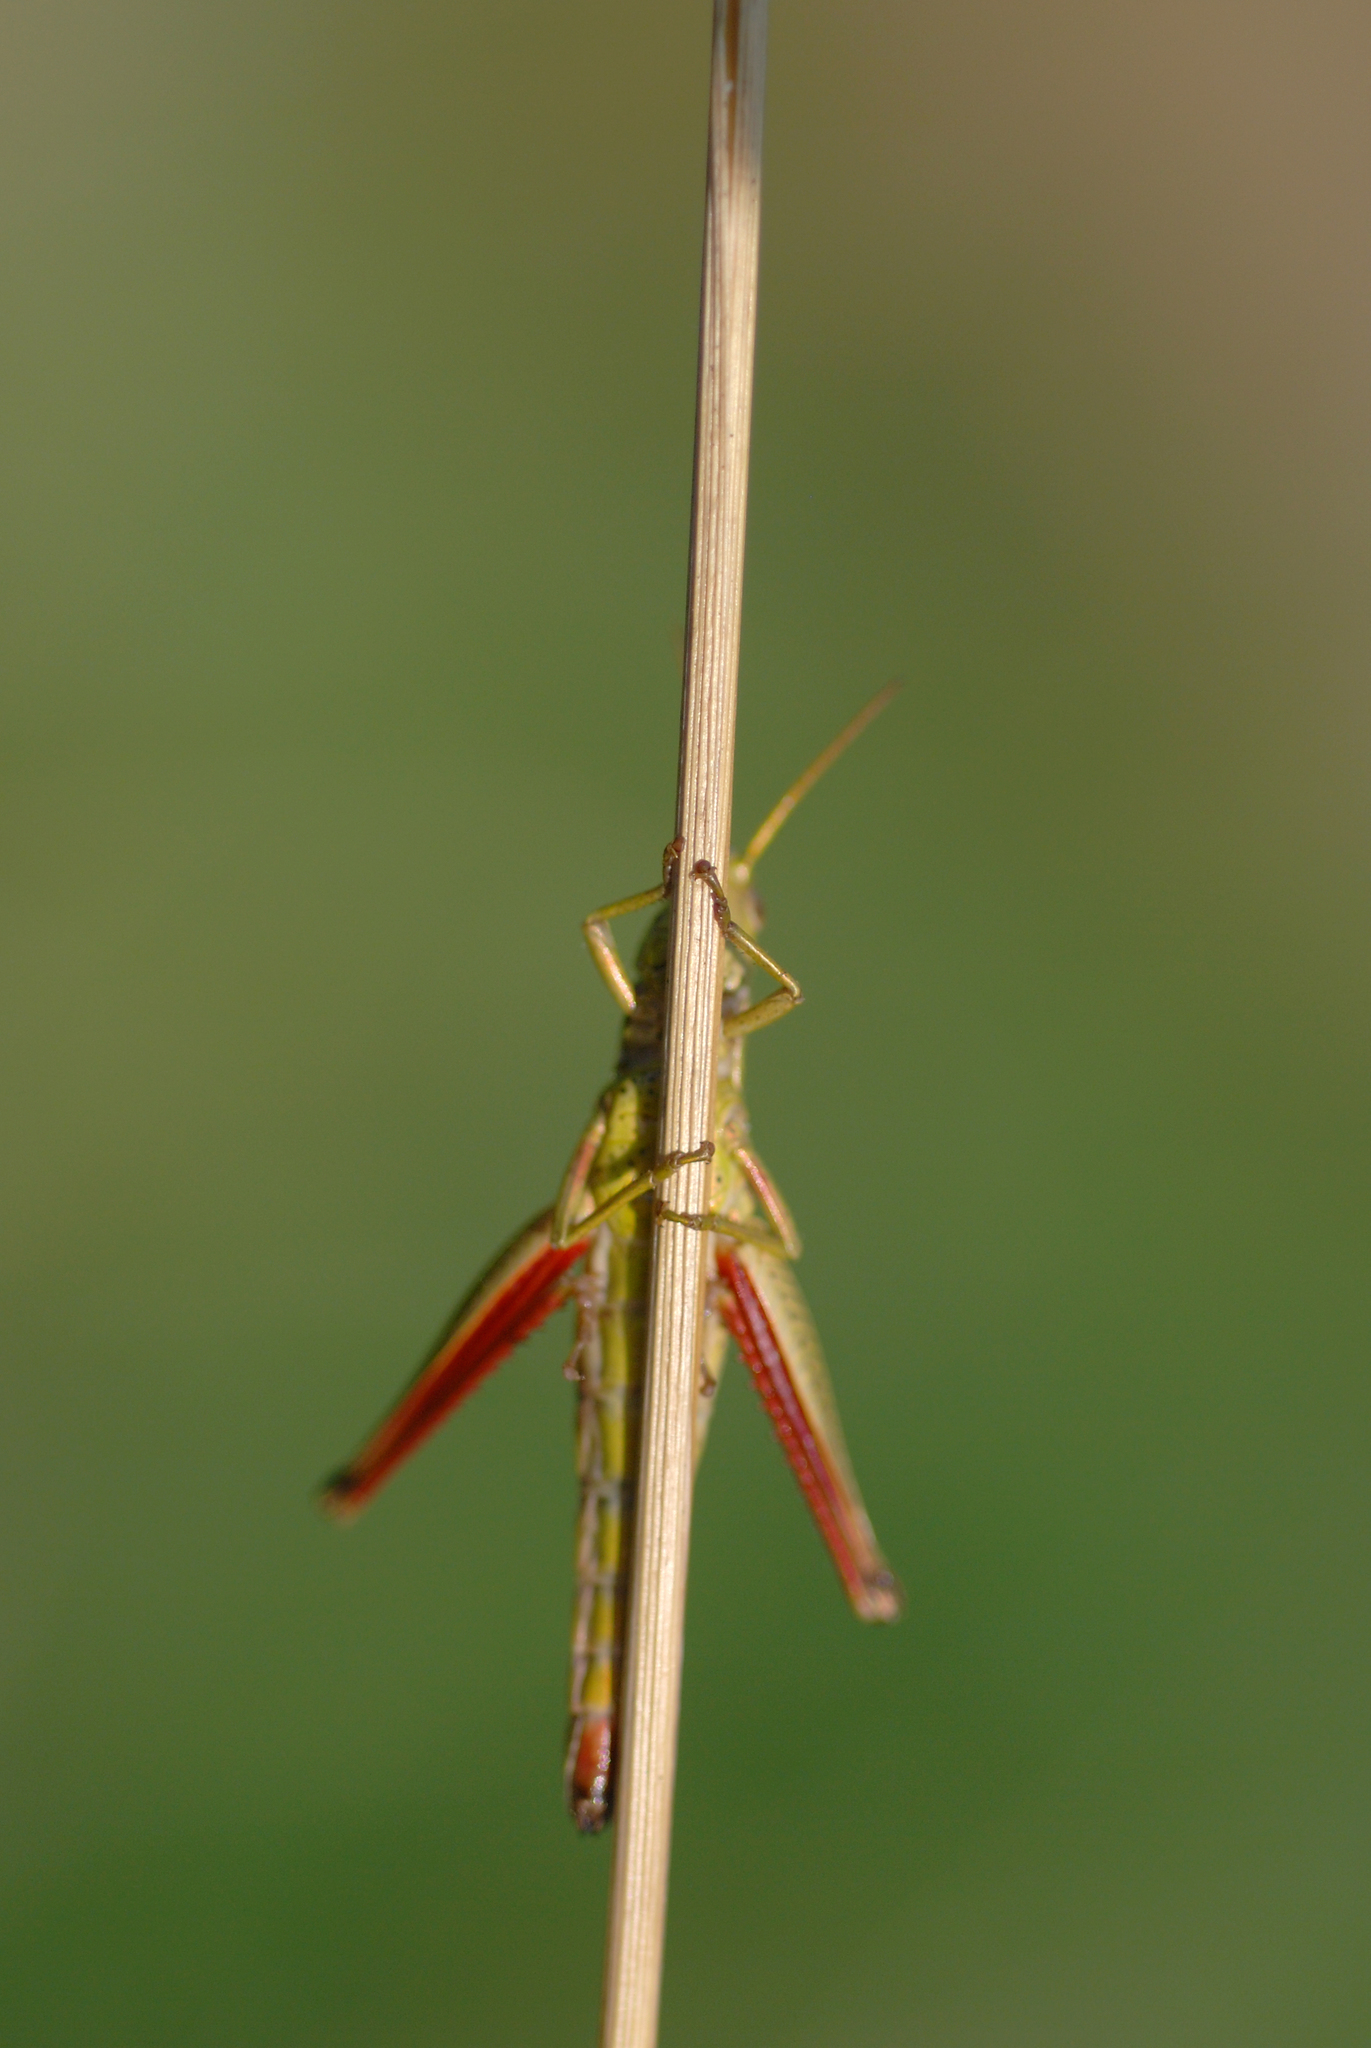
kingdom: Animalia
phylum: Arthropoda
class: Insecta
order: Orthoptera
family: Acrididae
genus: Chrysochraon
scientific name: Chrysochraon dispar
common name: Large gold grasshopper
